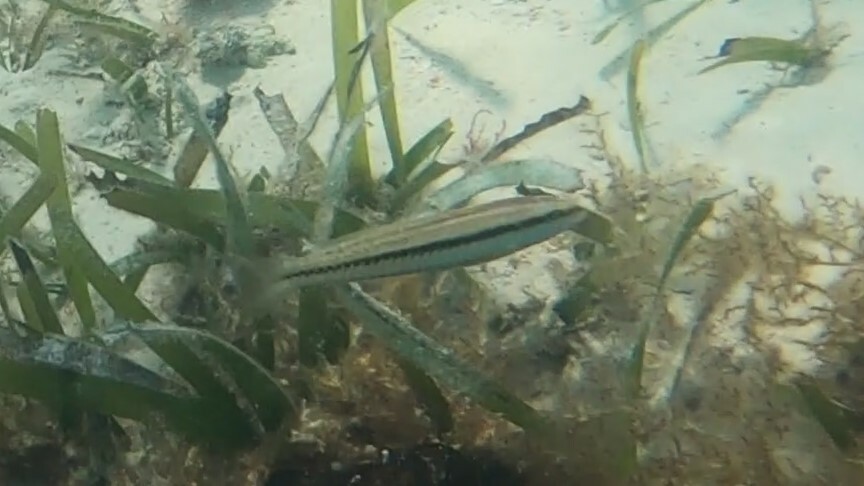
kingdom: Animalia
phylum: Chordata
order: Perciformes
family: Labridae
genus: Halichoeres
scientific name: Halichoeres bivittatus
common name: Slippery dick
